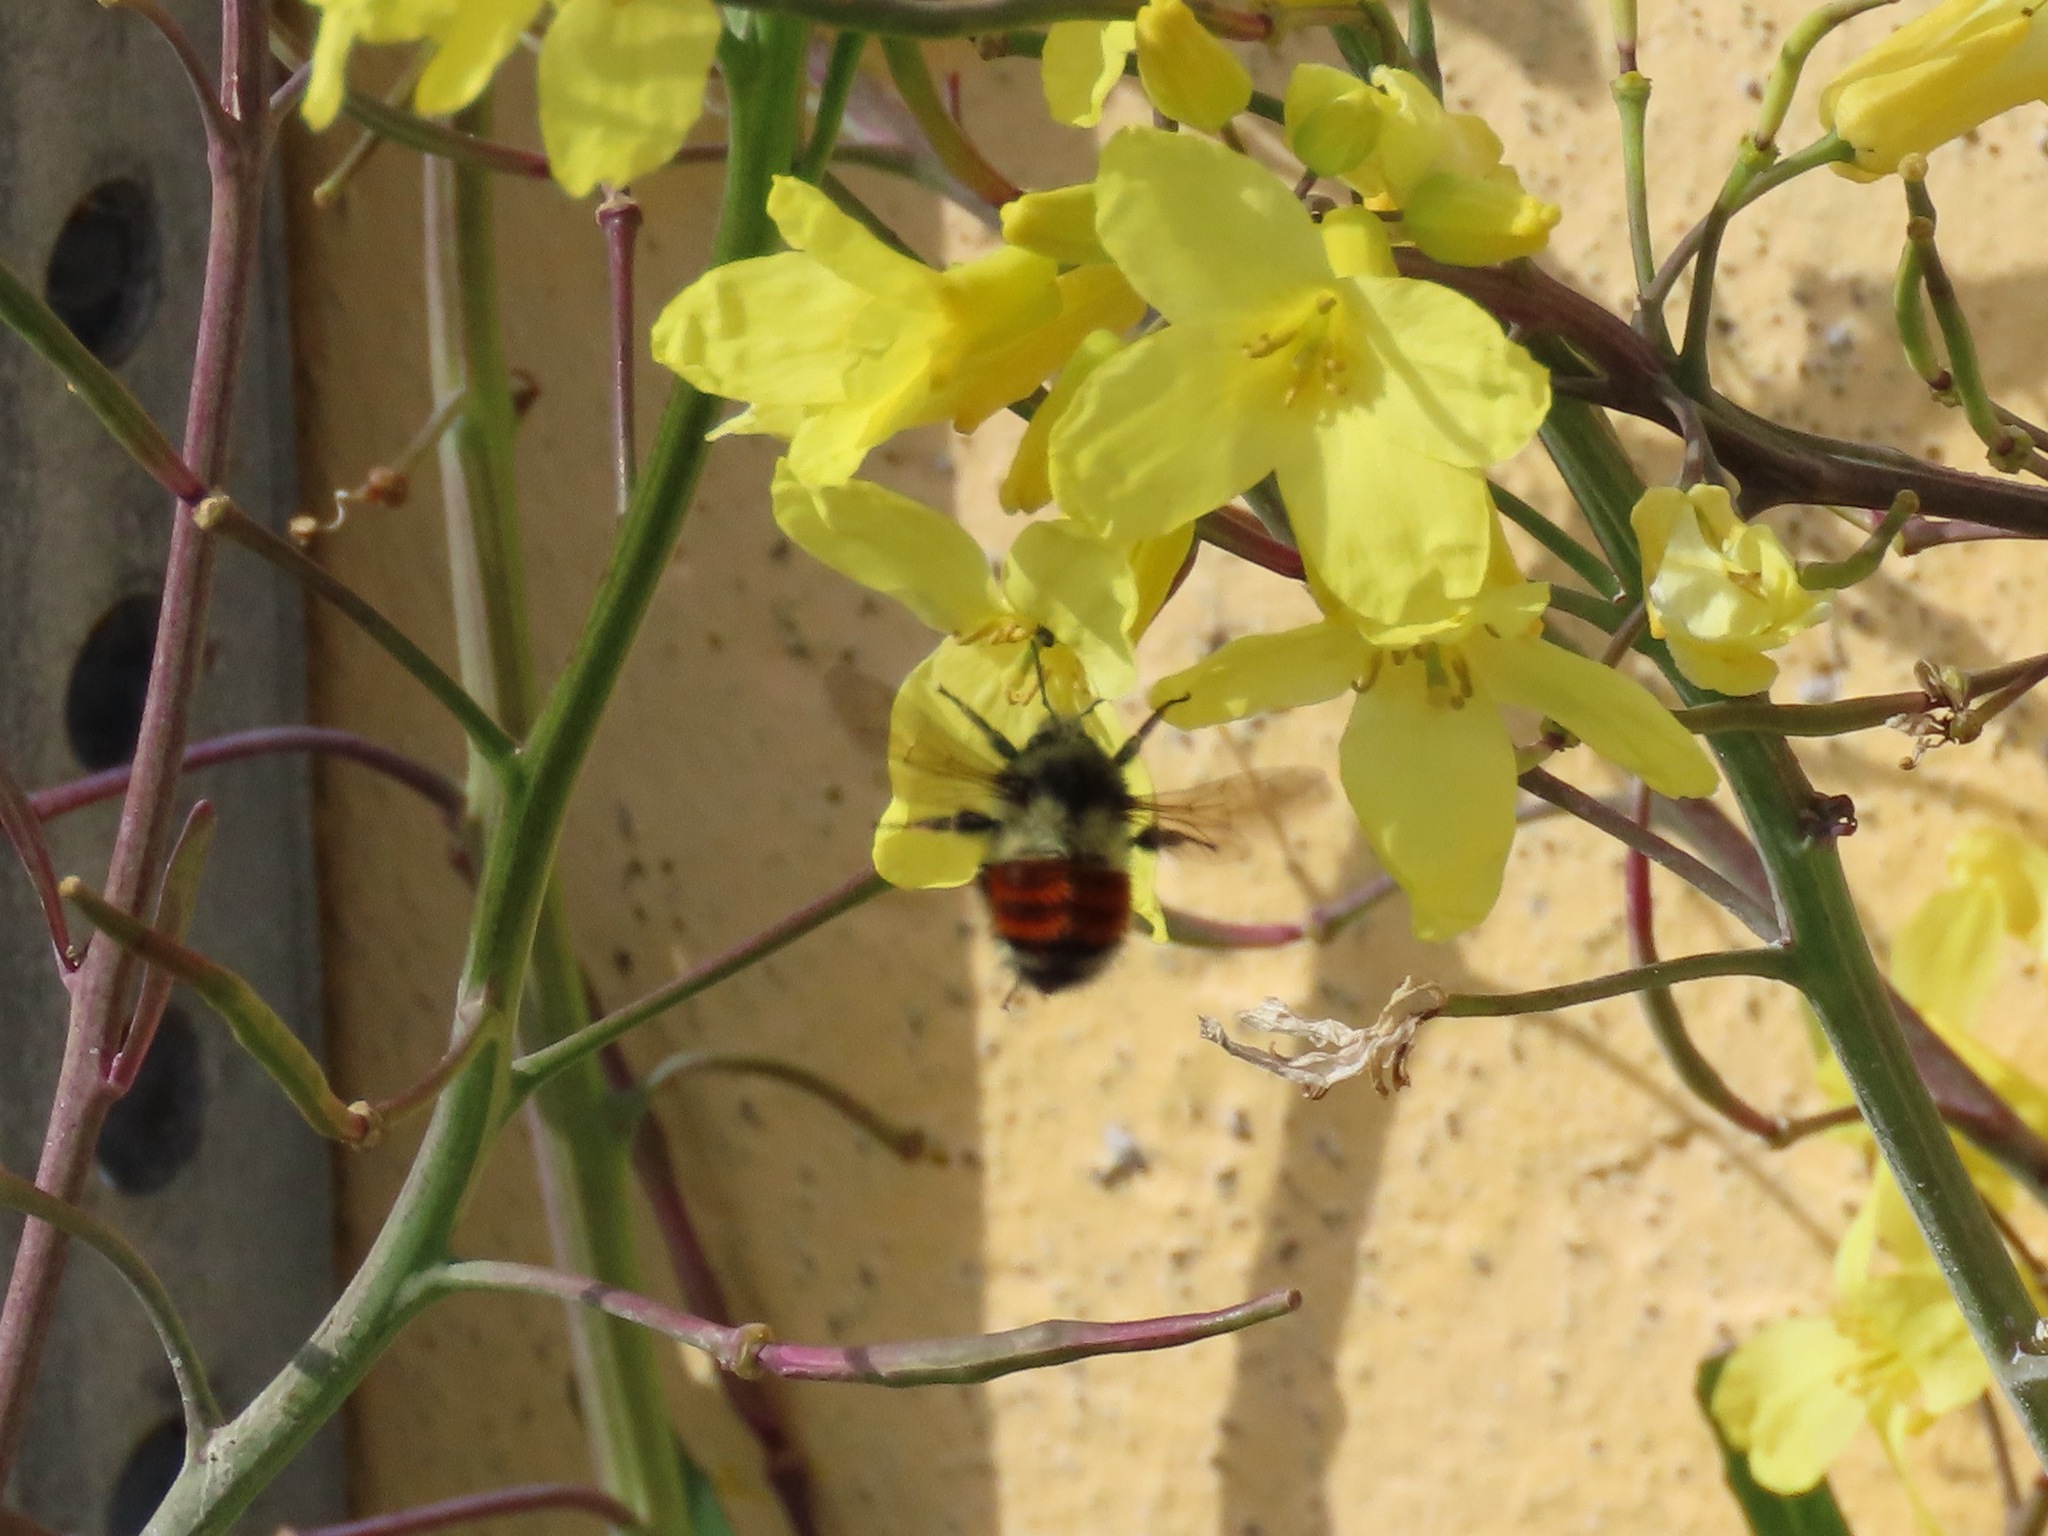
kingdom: Animalia
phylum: Arthropoda
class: Insecta
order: Hymenoptera
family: Apidae
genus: Bombus
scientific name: Bombus melanopygus
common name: Black tail bumble bee
